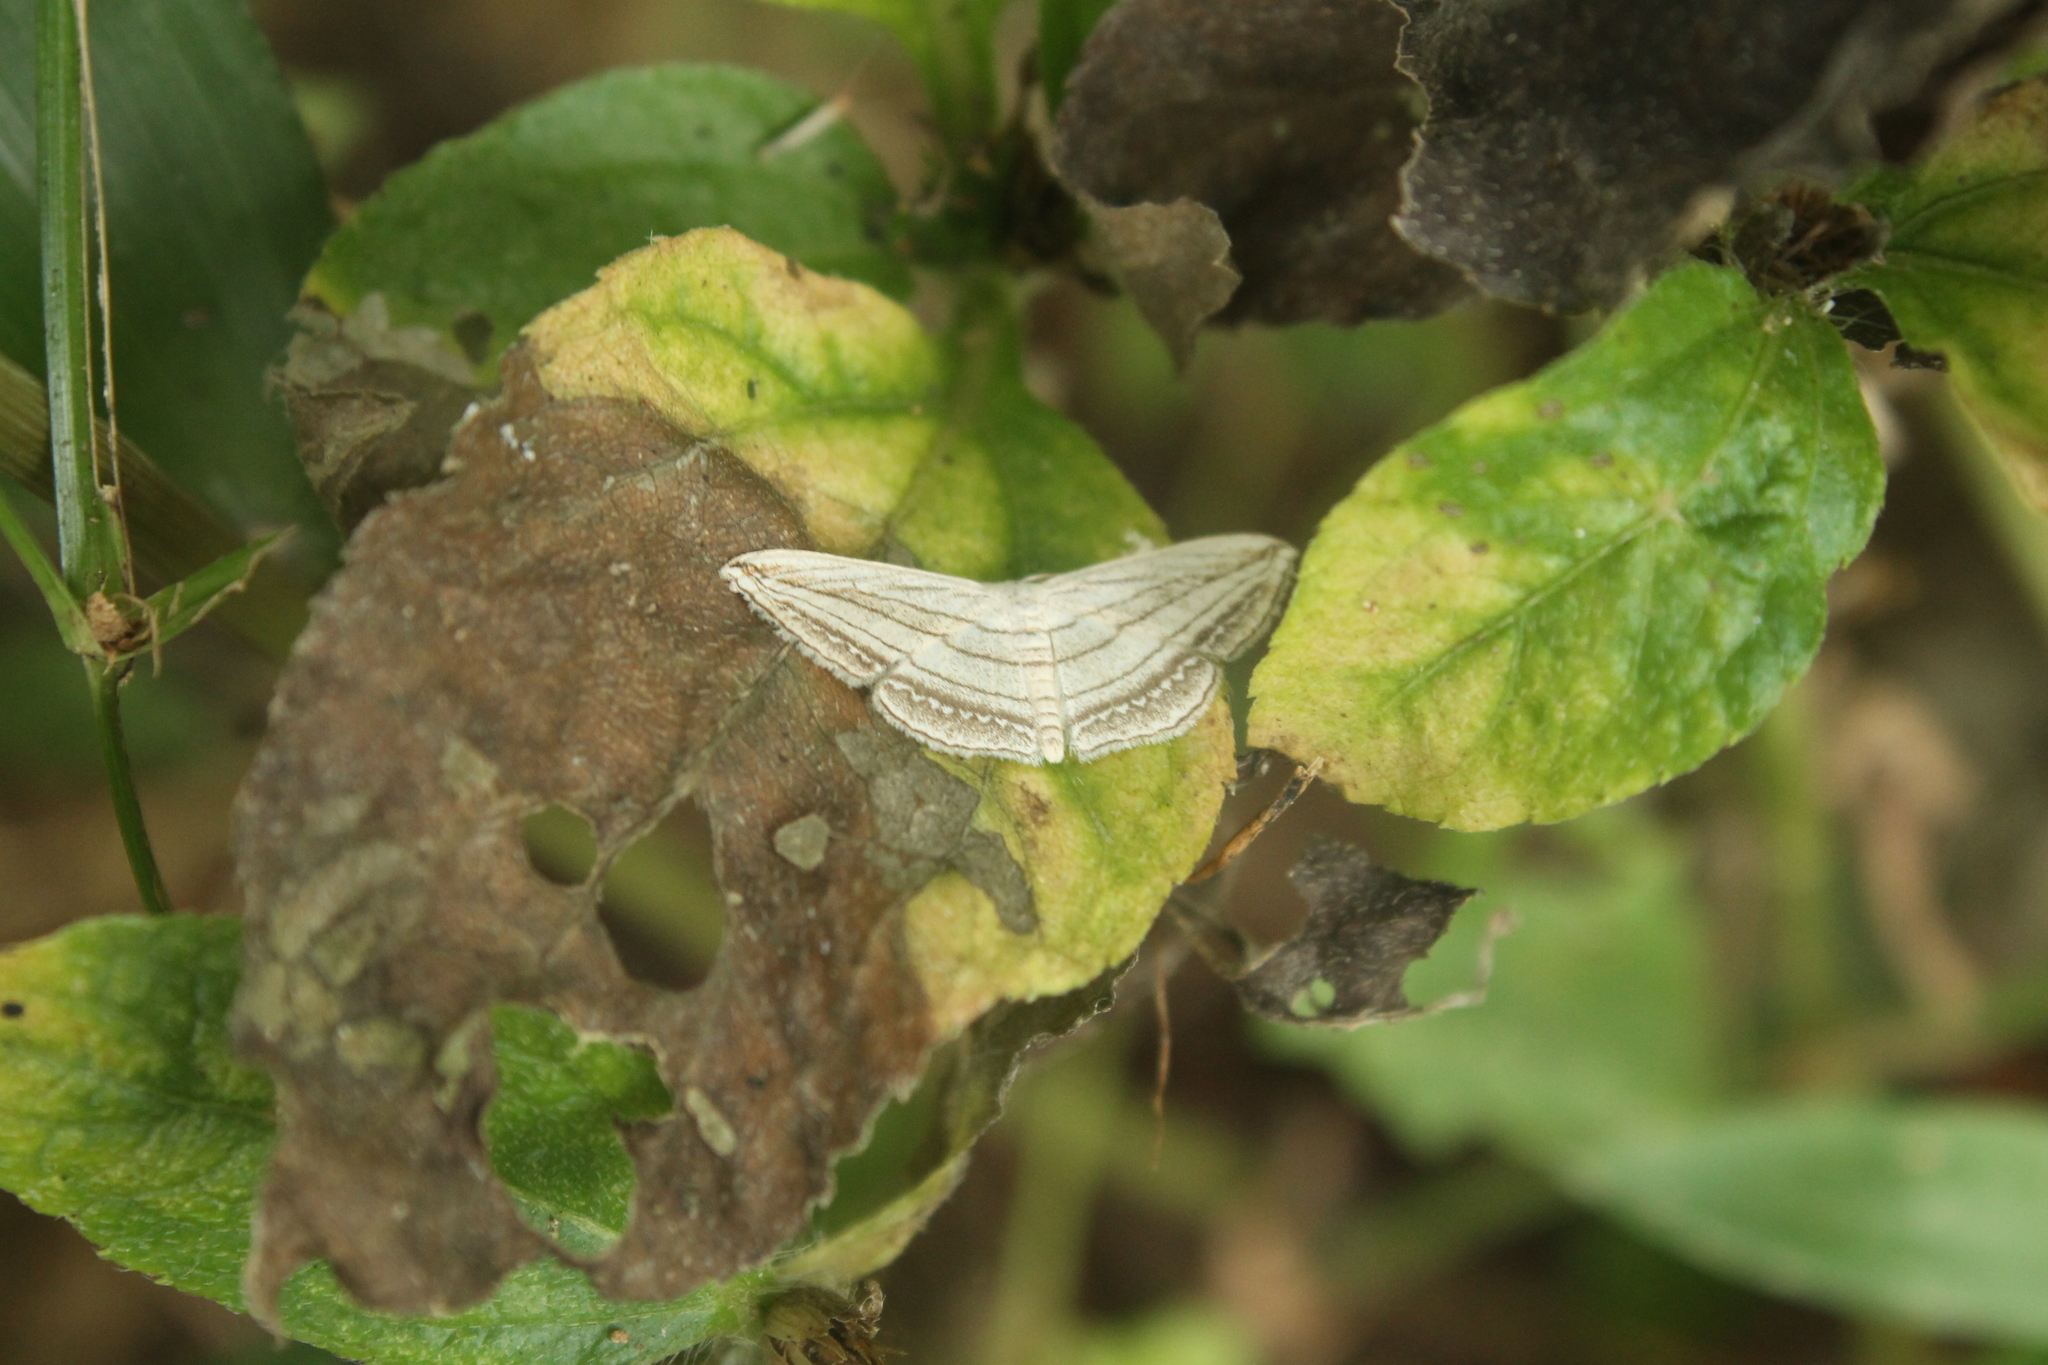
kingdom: Animalia
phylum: Arthropoda
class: Insecta
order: Lepidoptera
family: Geometridae
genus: Scopula
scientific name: Scopula opicata
